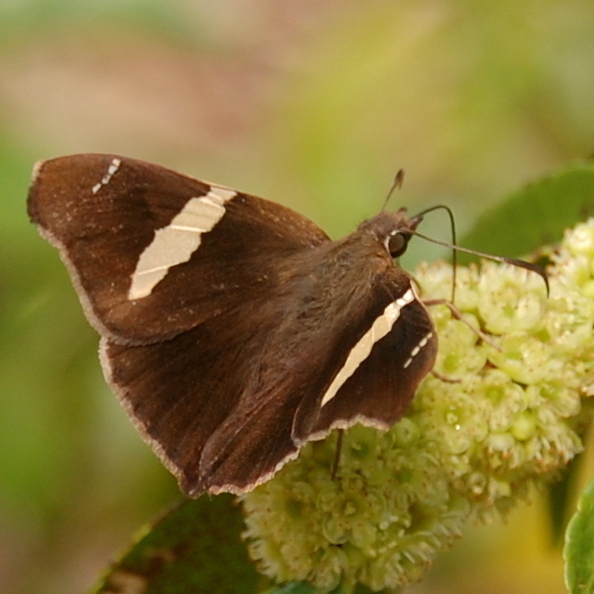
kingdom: Animalia
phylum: Arthropoda
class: Insecta
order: Lepidoptera
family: Hesperiidae
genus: Oechydrus
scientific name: Oechydrus chersis
